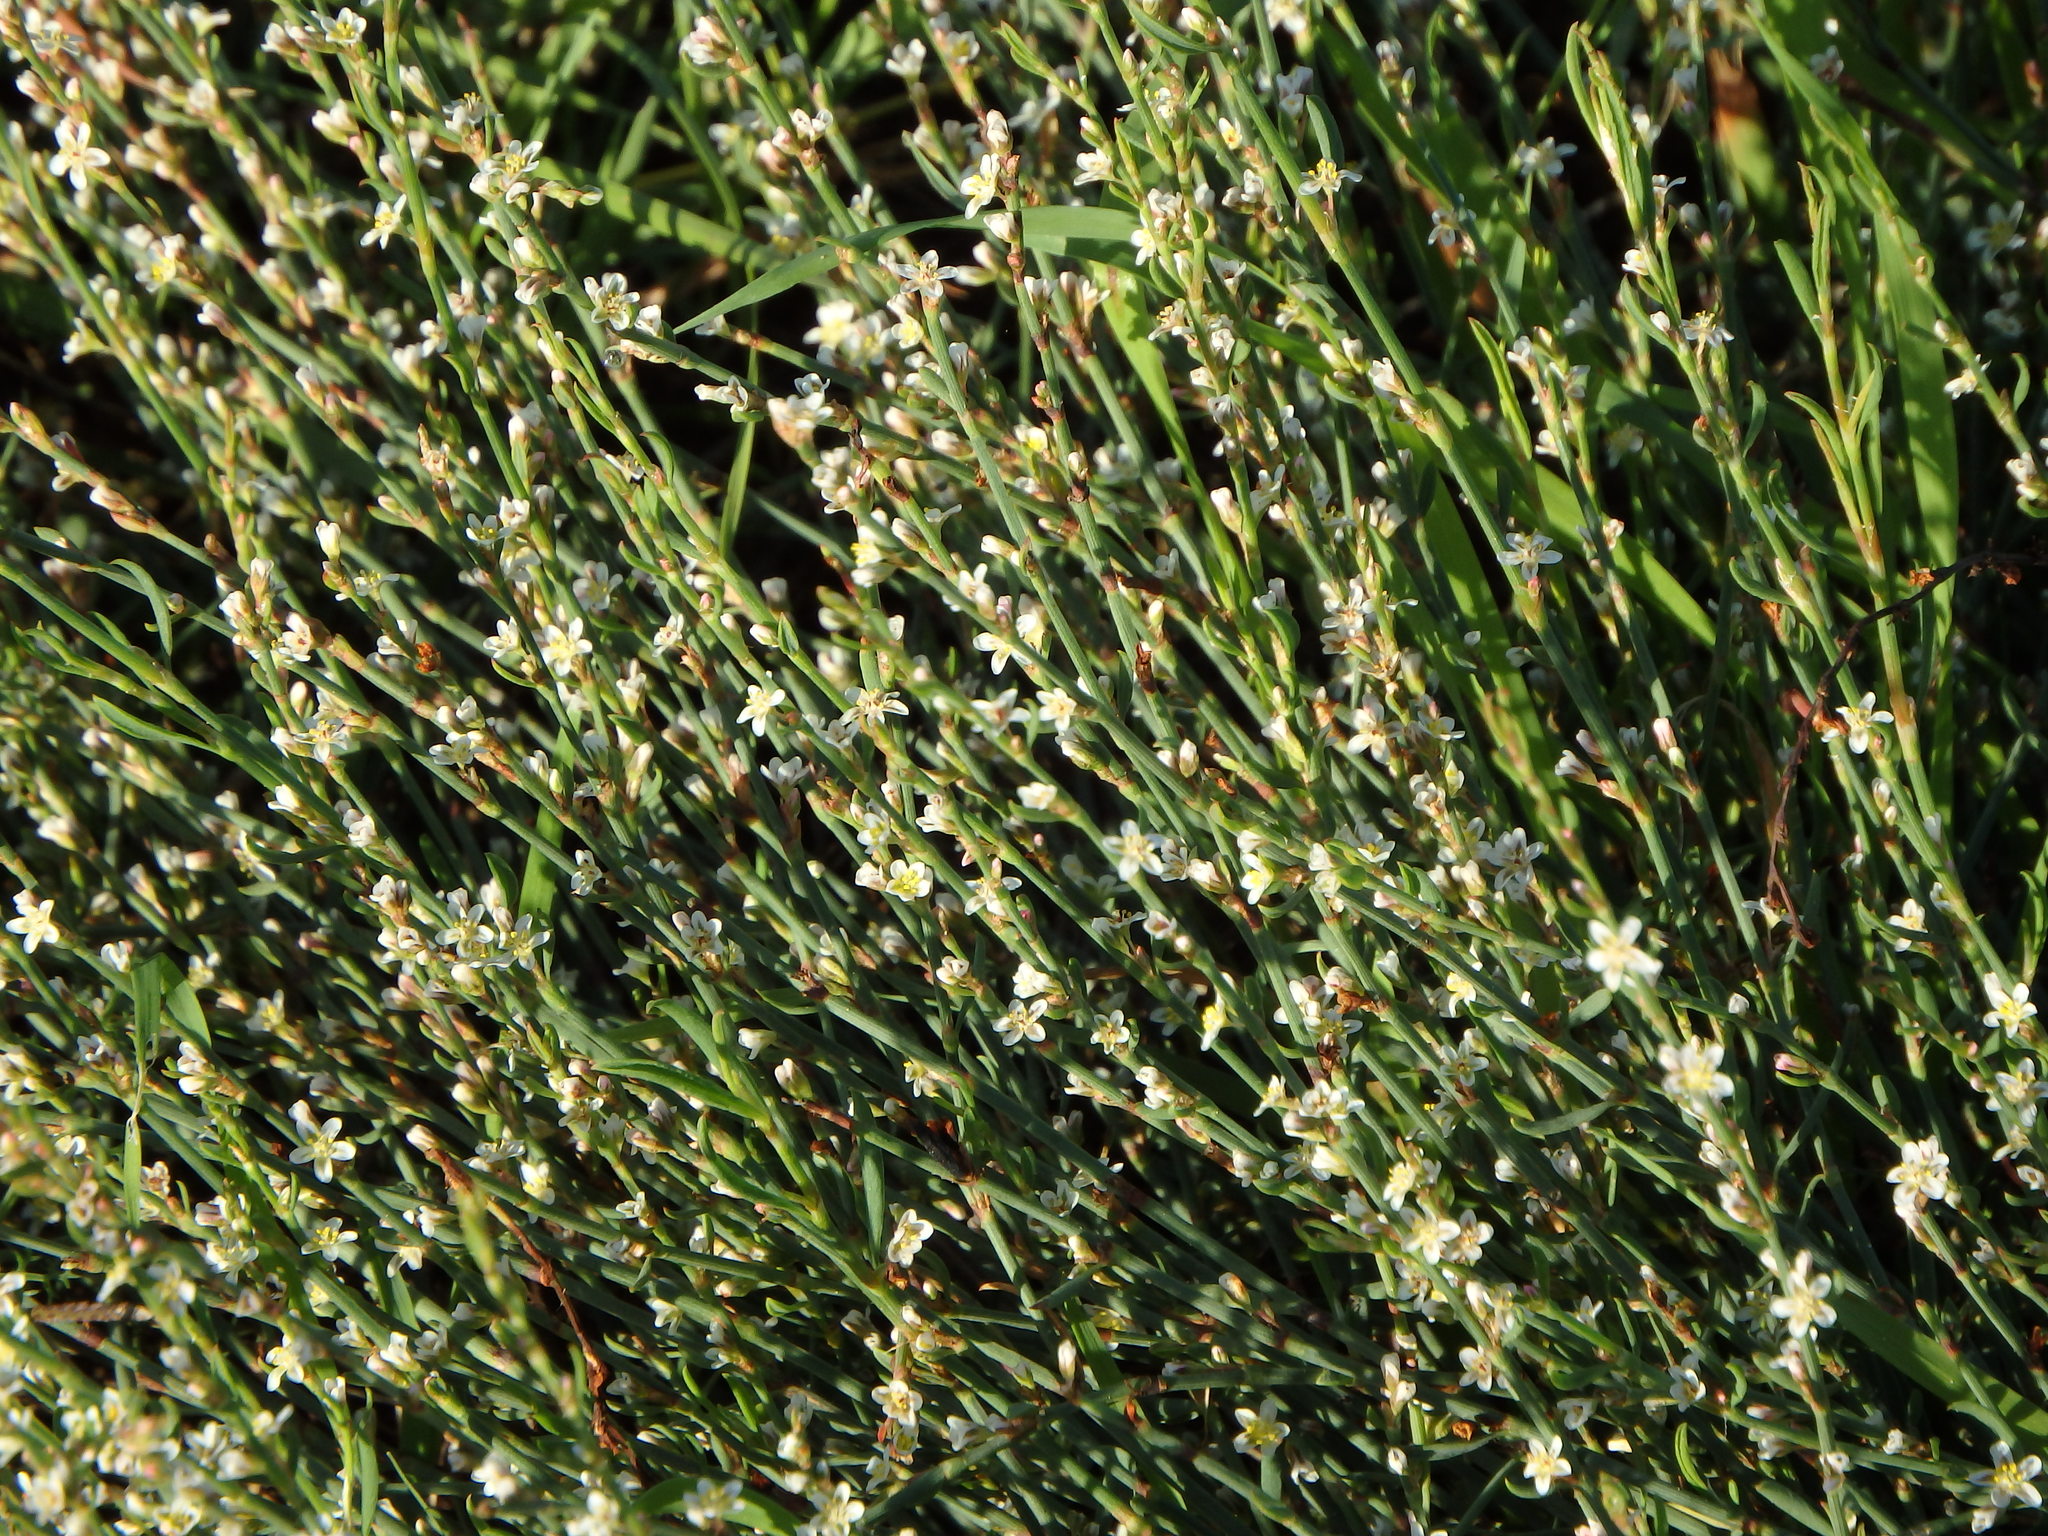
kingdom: Plantae
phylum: Tracheophyta
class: Magnoliopsida
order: Caryophyllales
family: Polygonaceae
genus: Polygonum
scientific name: Polygonum equisetiforme
